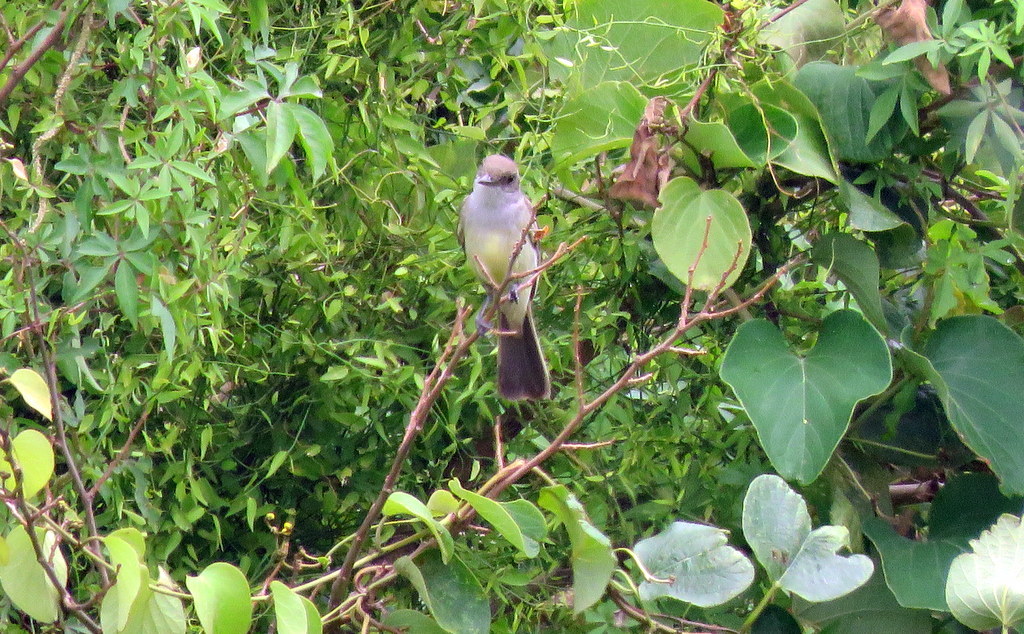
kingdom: Animalia
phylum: Chordata
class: Aves
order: Passeriformes
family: Tyrannidae
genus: Myiarchus
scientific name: Myiarchus swainsoni
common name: Swainson's flycatcher
